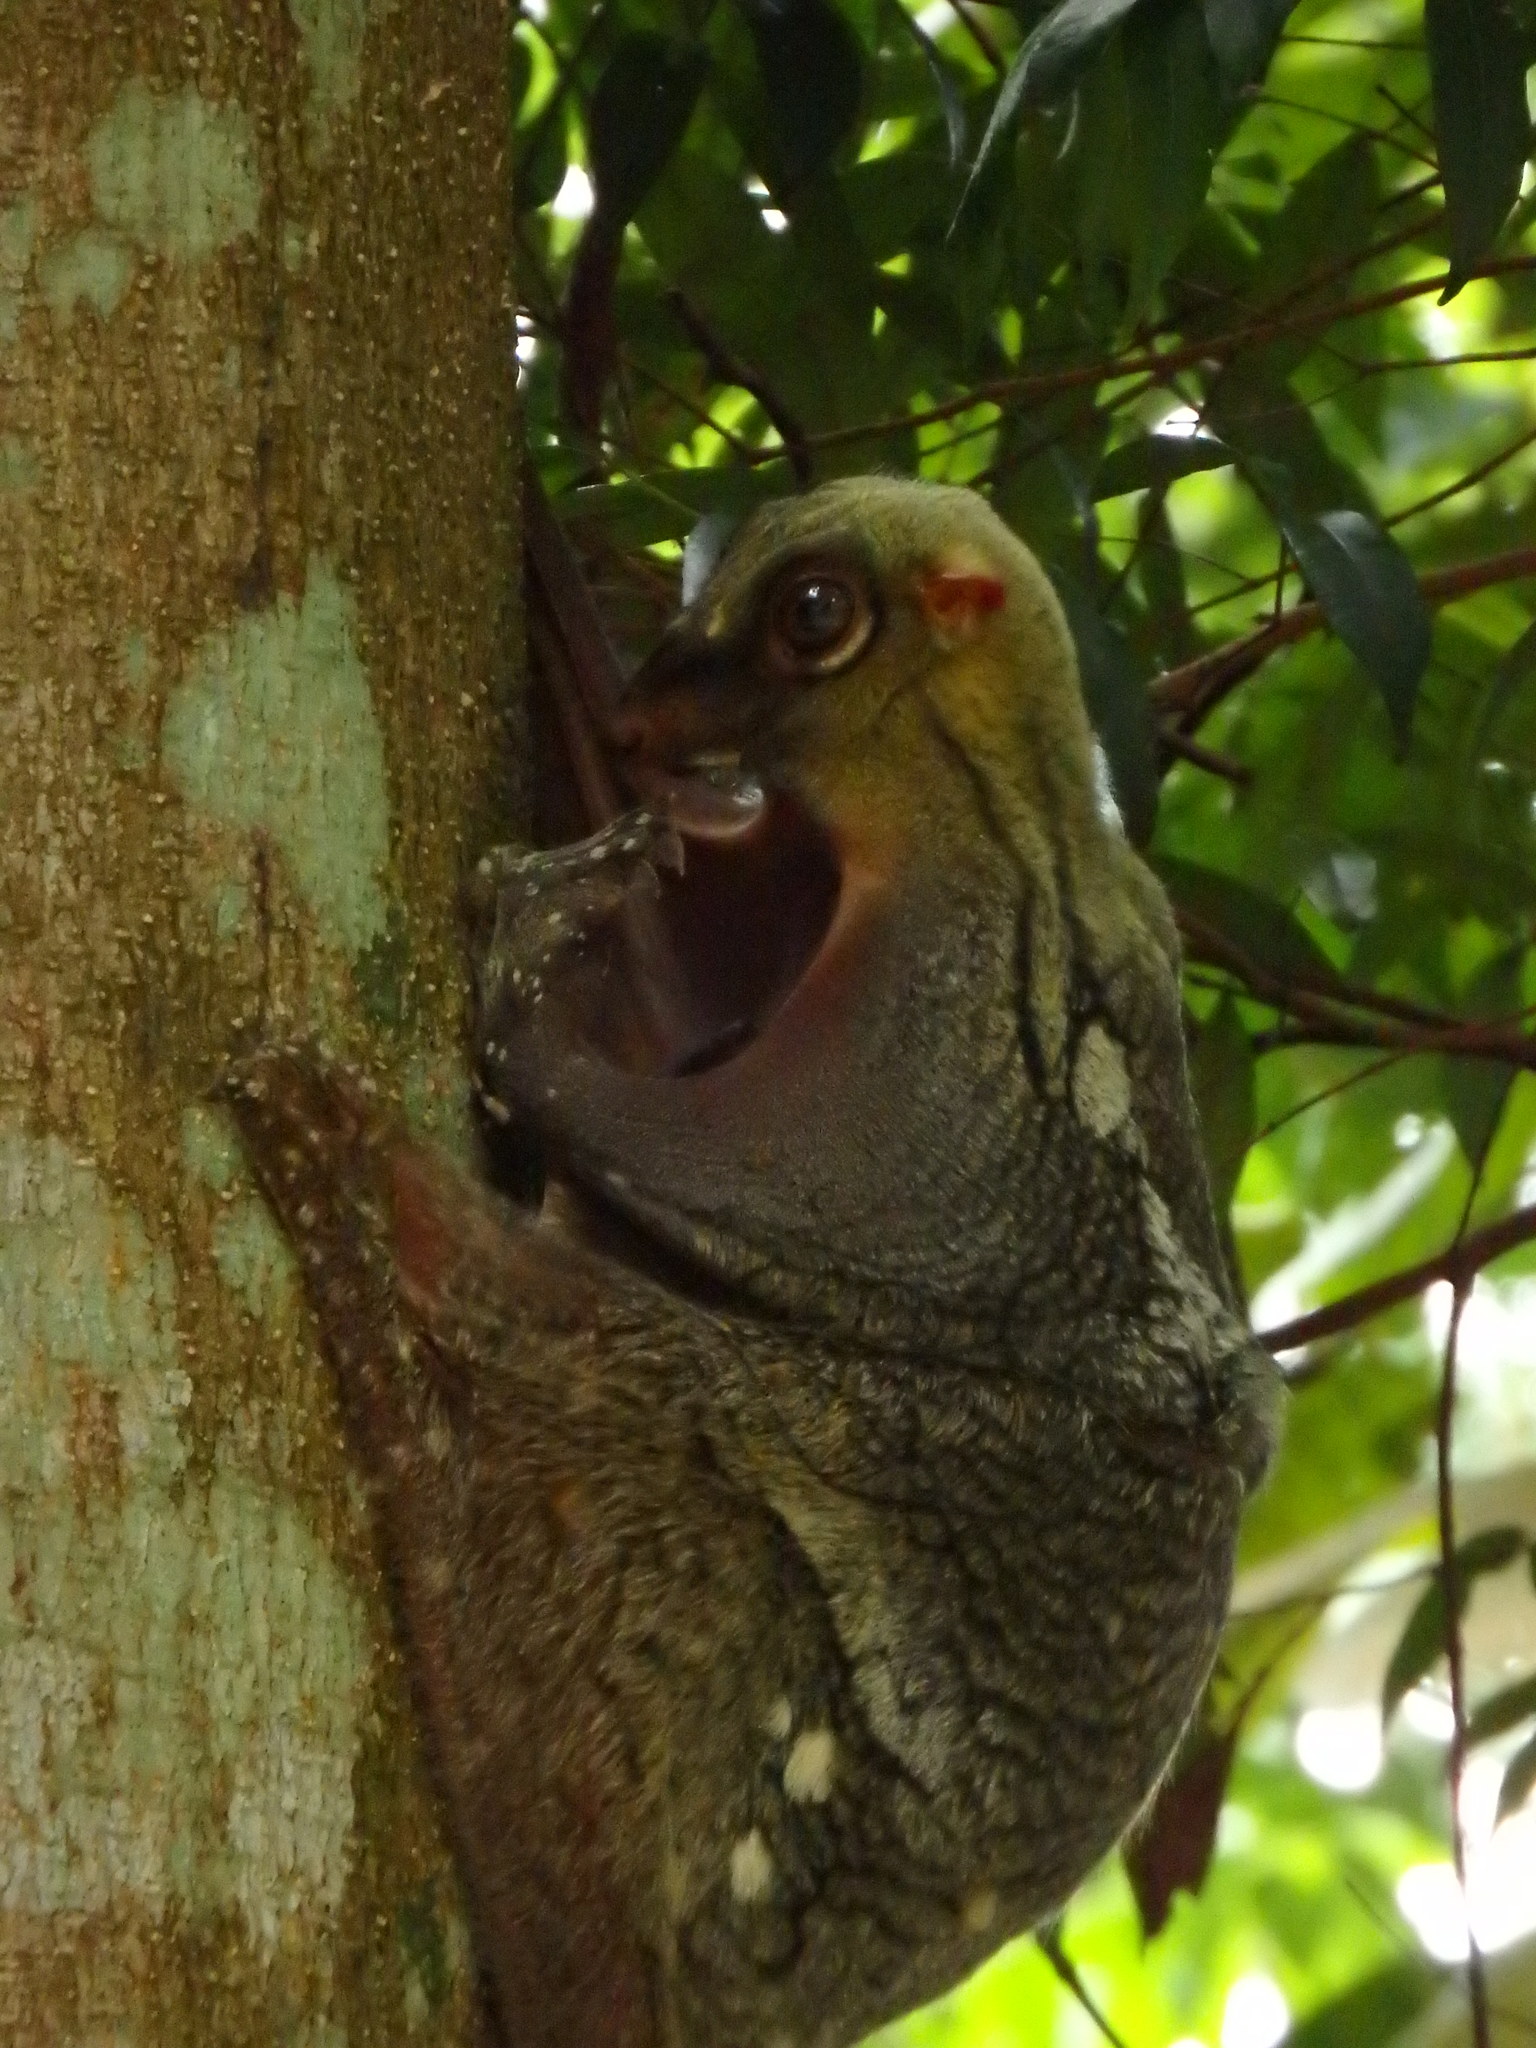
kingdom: Animalia
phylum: Chordata
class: Mammalia
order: Dermoptera
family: Cynocephalidae
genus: Galeopterus
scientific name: Galeopterus variegatus
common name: Sunda flying lemur
